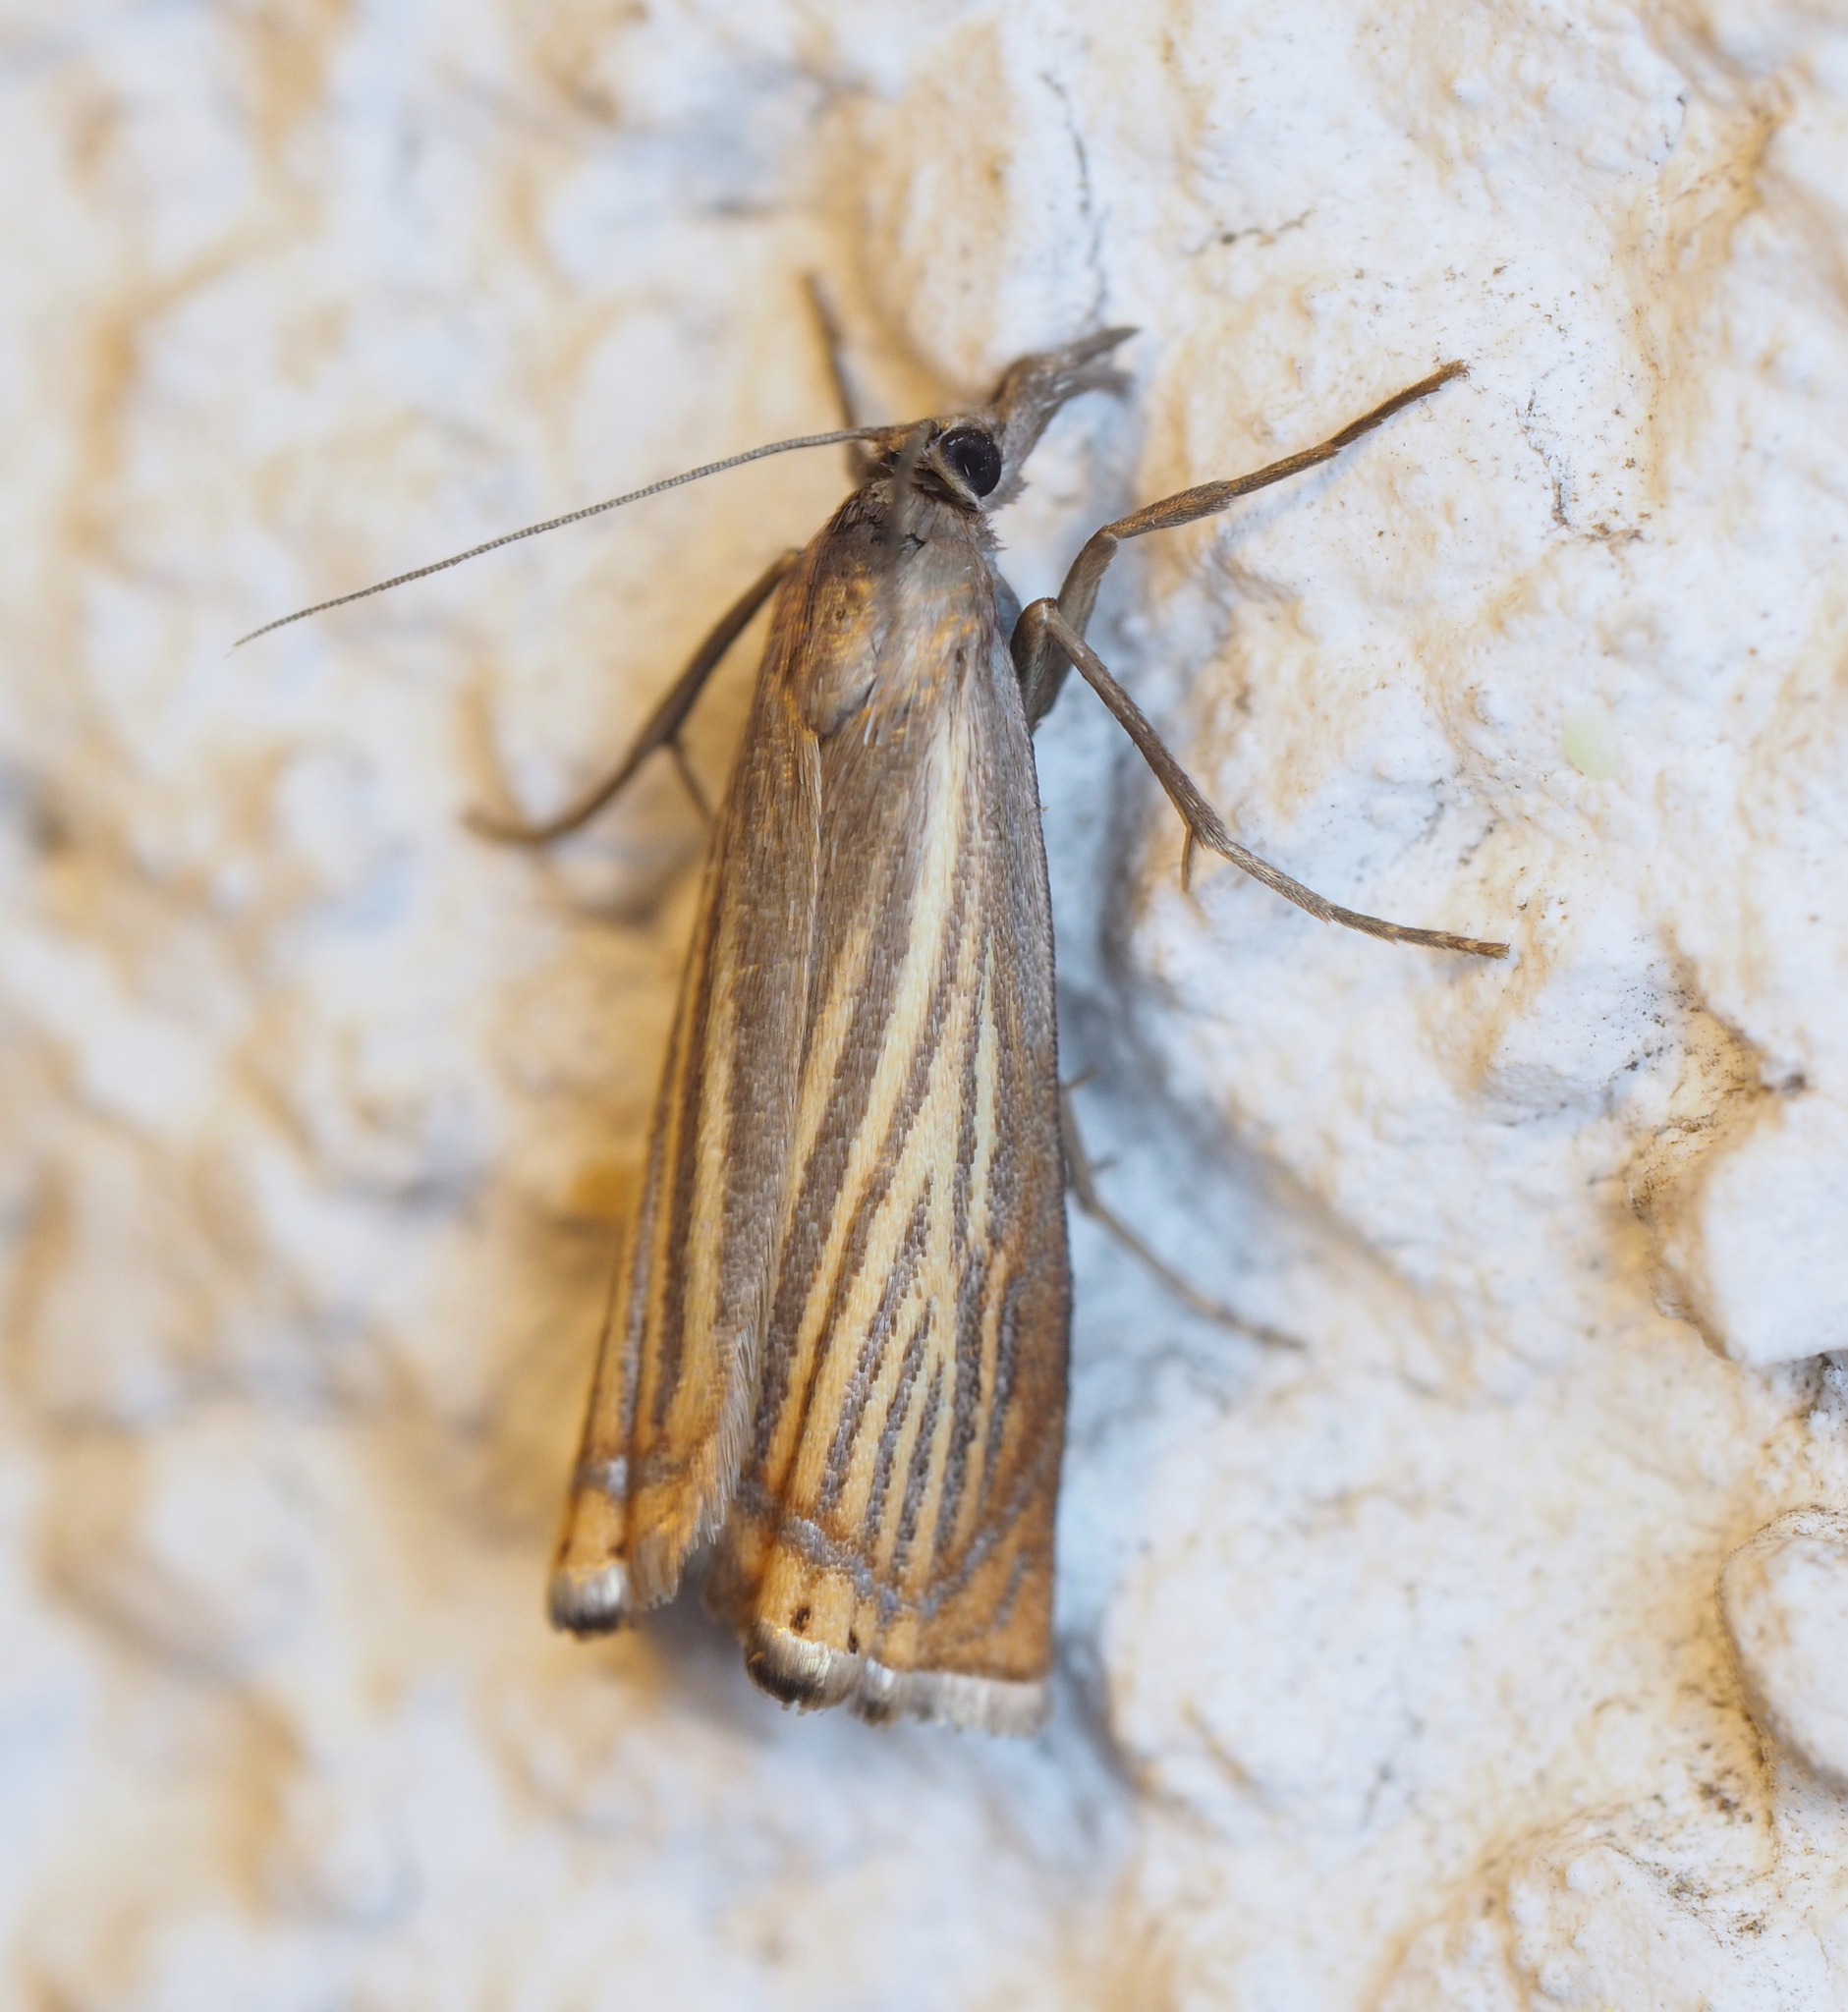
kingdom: Animalia
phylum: Arthropoda
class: Insecta
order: Lepidoptera
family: Crambidae
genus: Chrysoteuchia
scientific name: Chrysoteuchia culmella
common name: Garden grass-veneer
